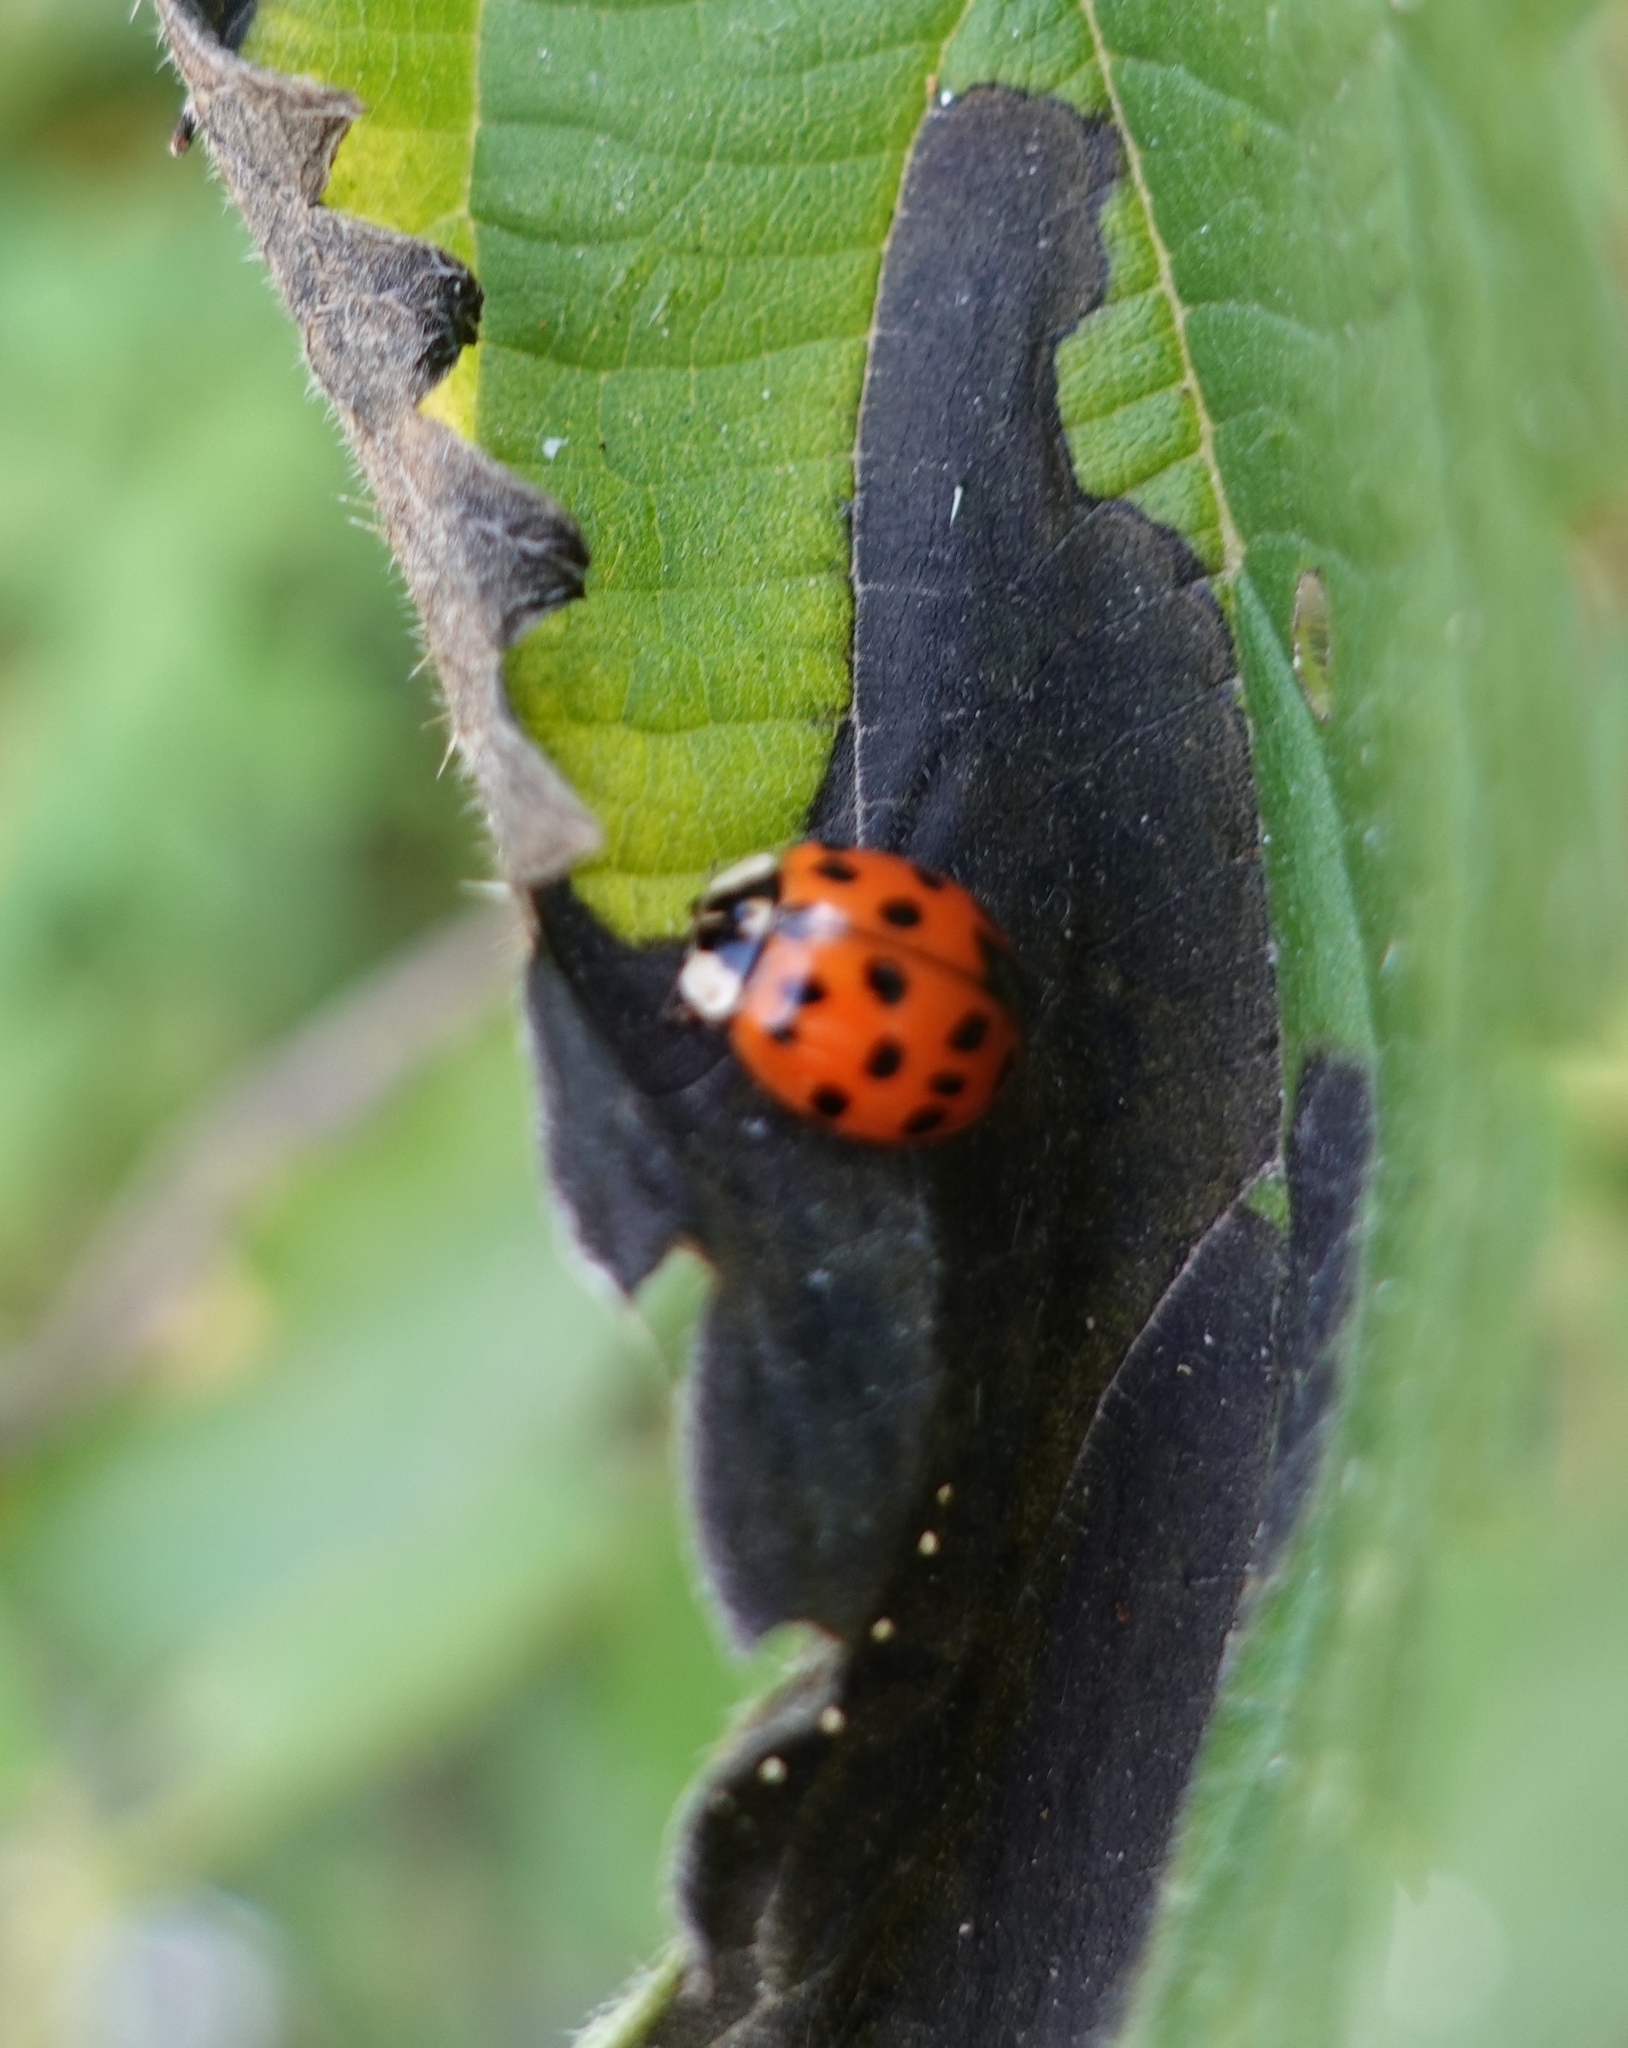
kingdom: Animalia
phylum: Arthropoda
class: Insecta
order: Coleoptera
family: Coccinellidae
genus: Harmonia
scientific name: Harmonia axyridis
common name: Harlequin ladybird
